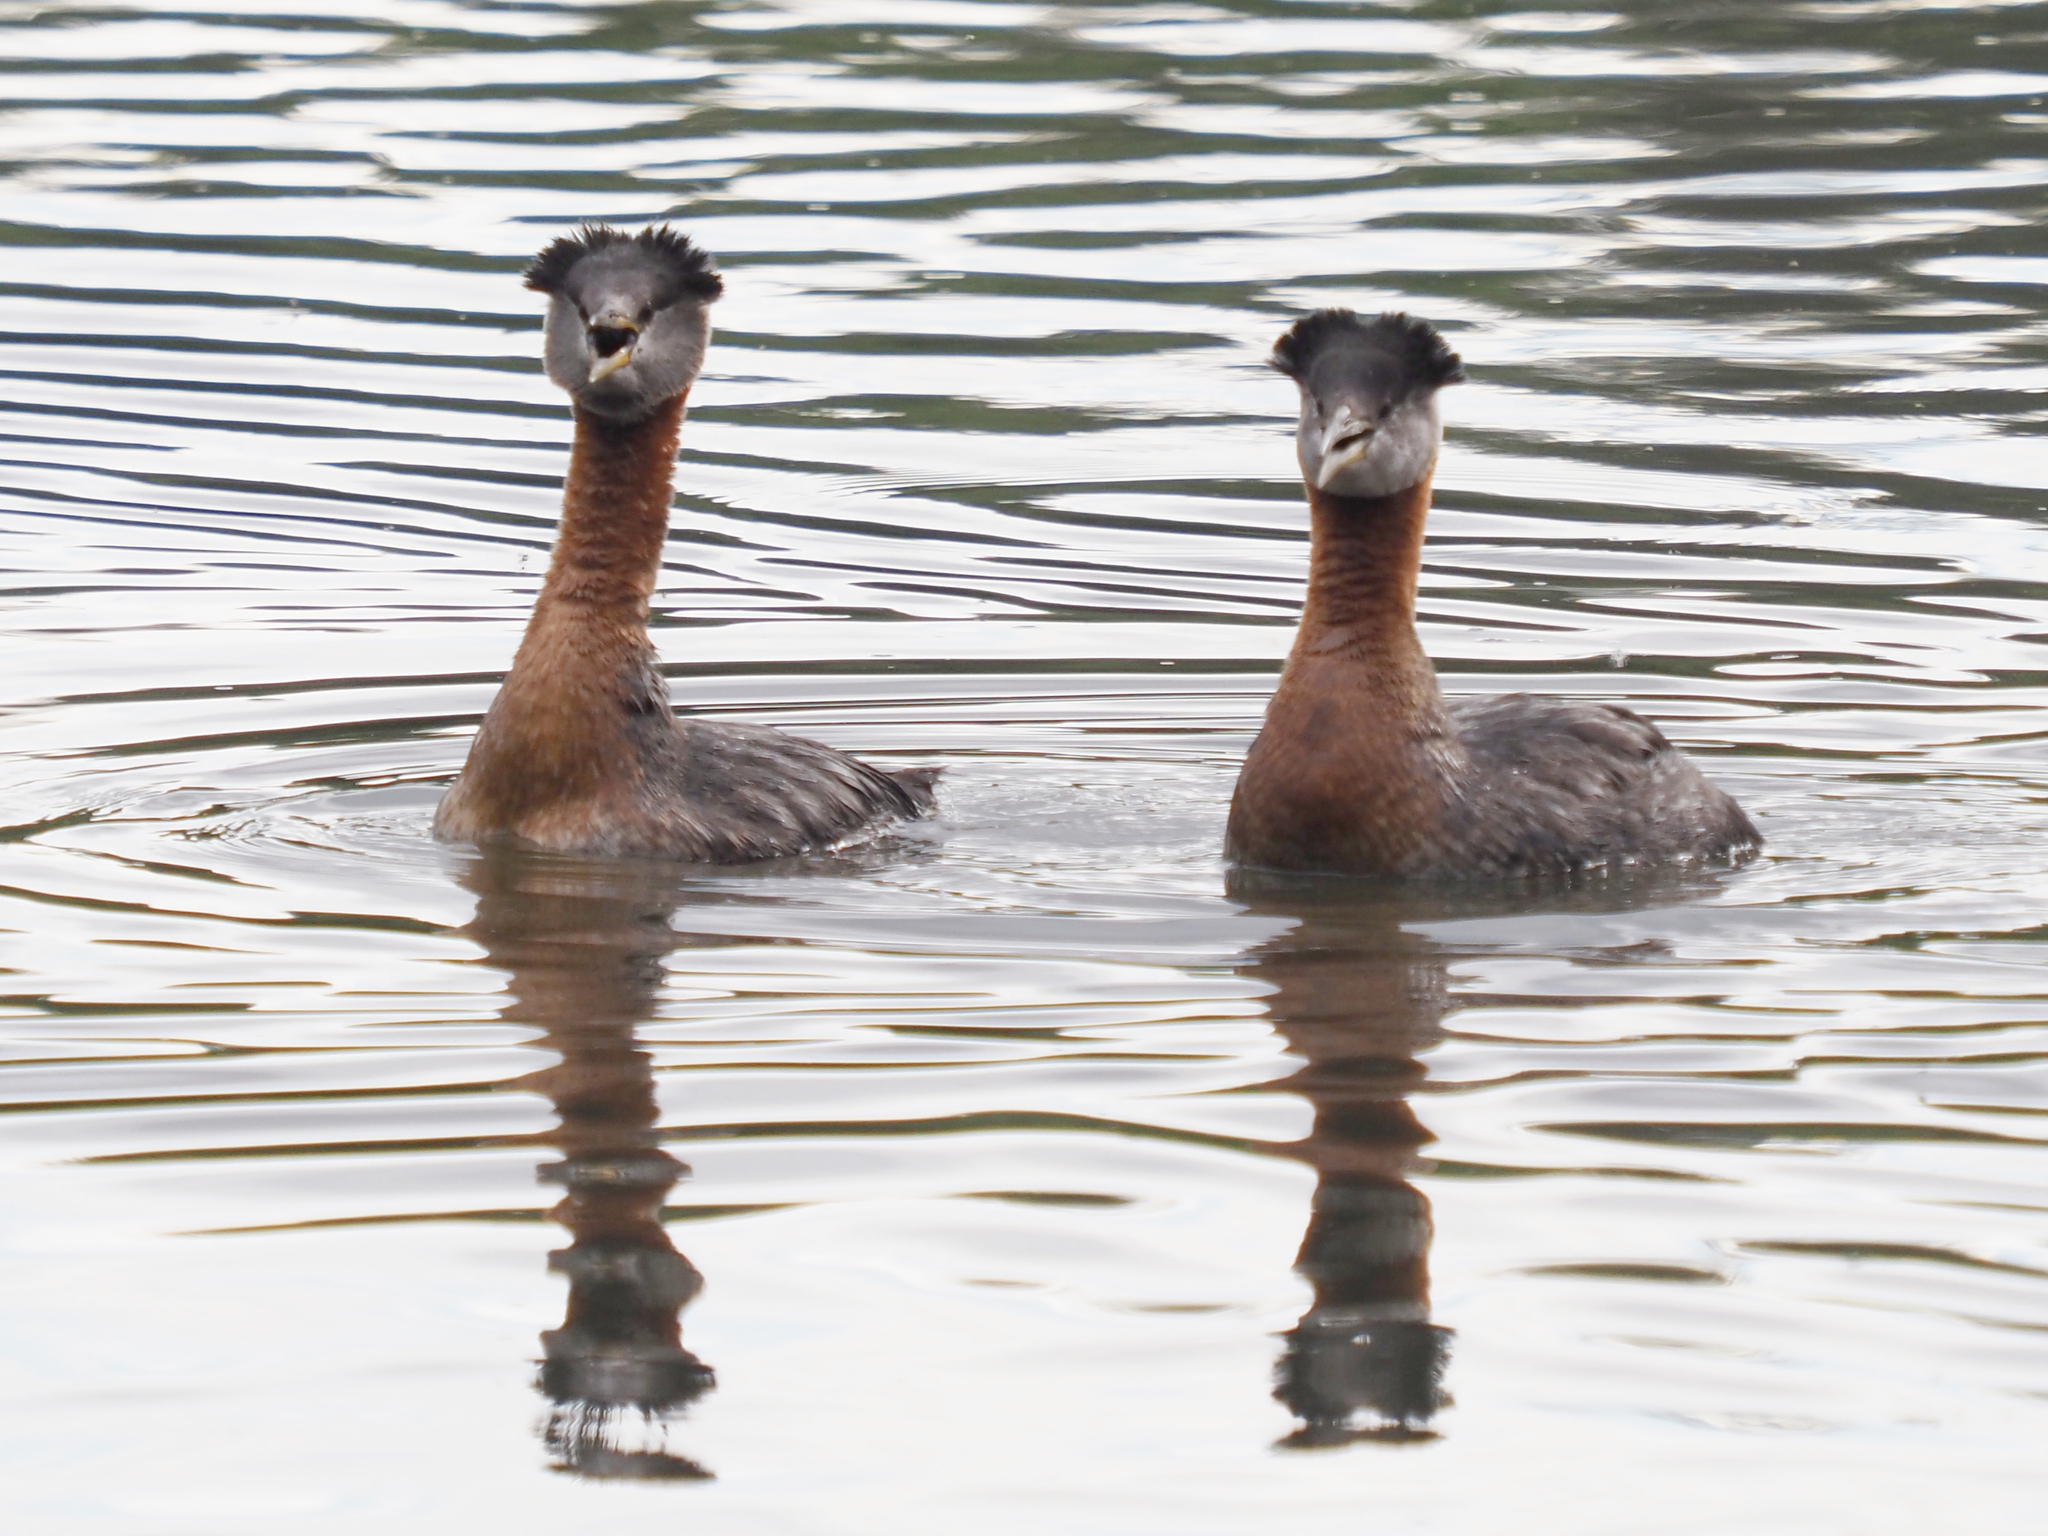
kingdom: Animalia
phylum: Chordata
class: Aves
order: Podicipediformes
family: Podicipedidae
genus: Podiceps
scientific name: Podiceps grisegena
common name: Red-necked grebe
